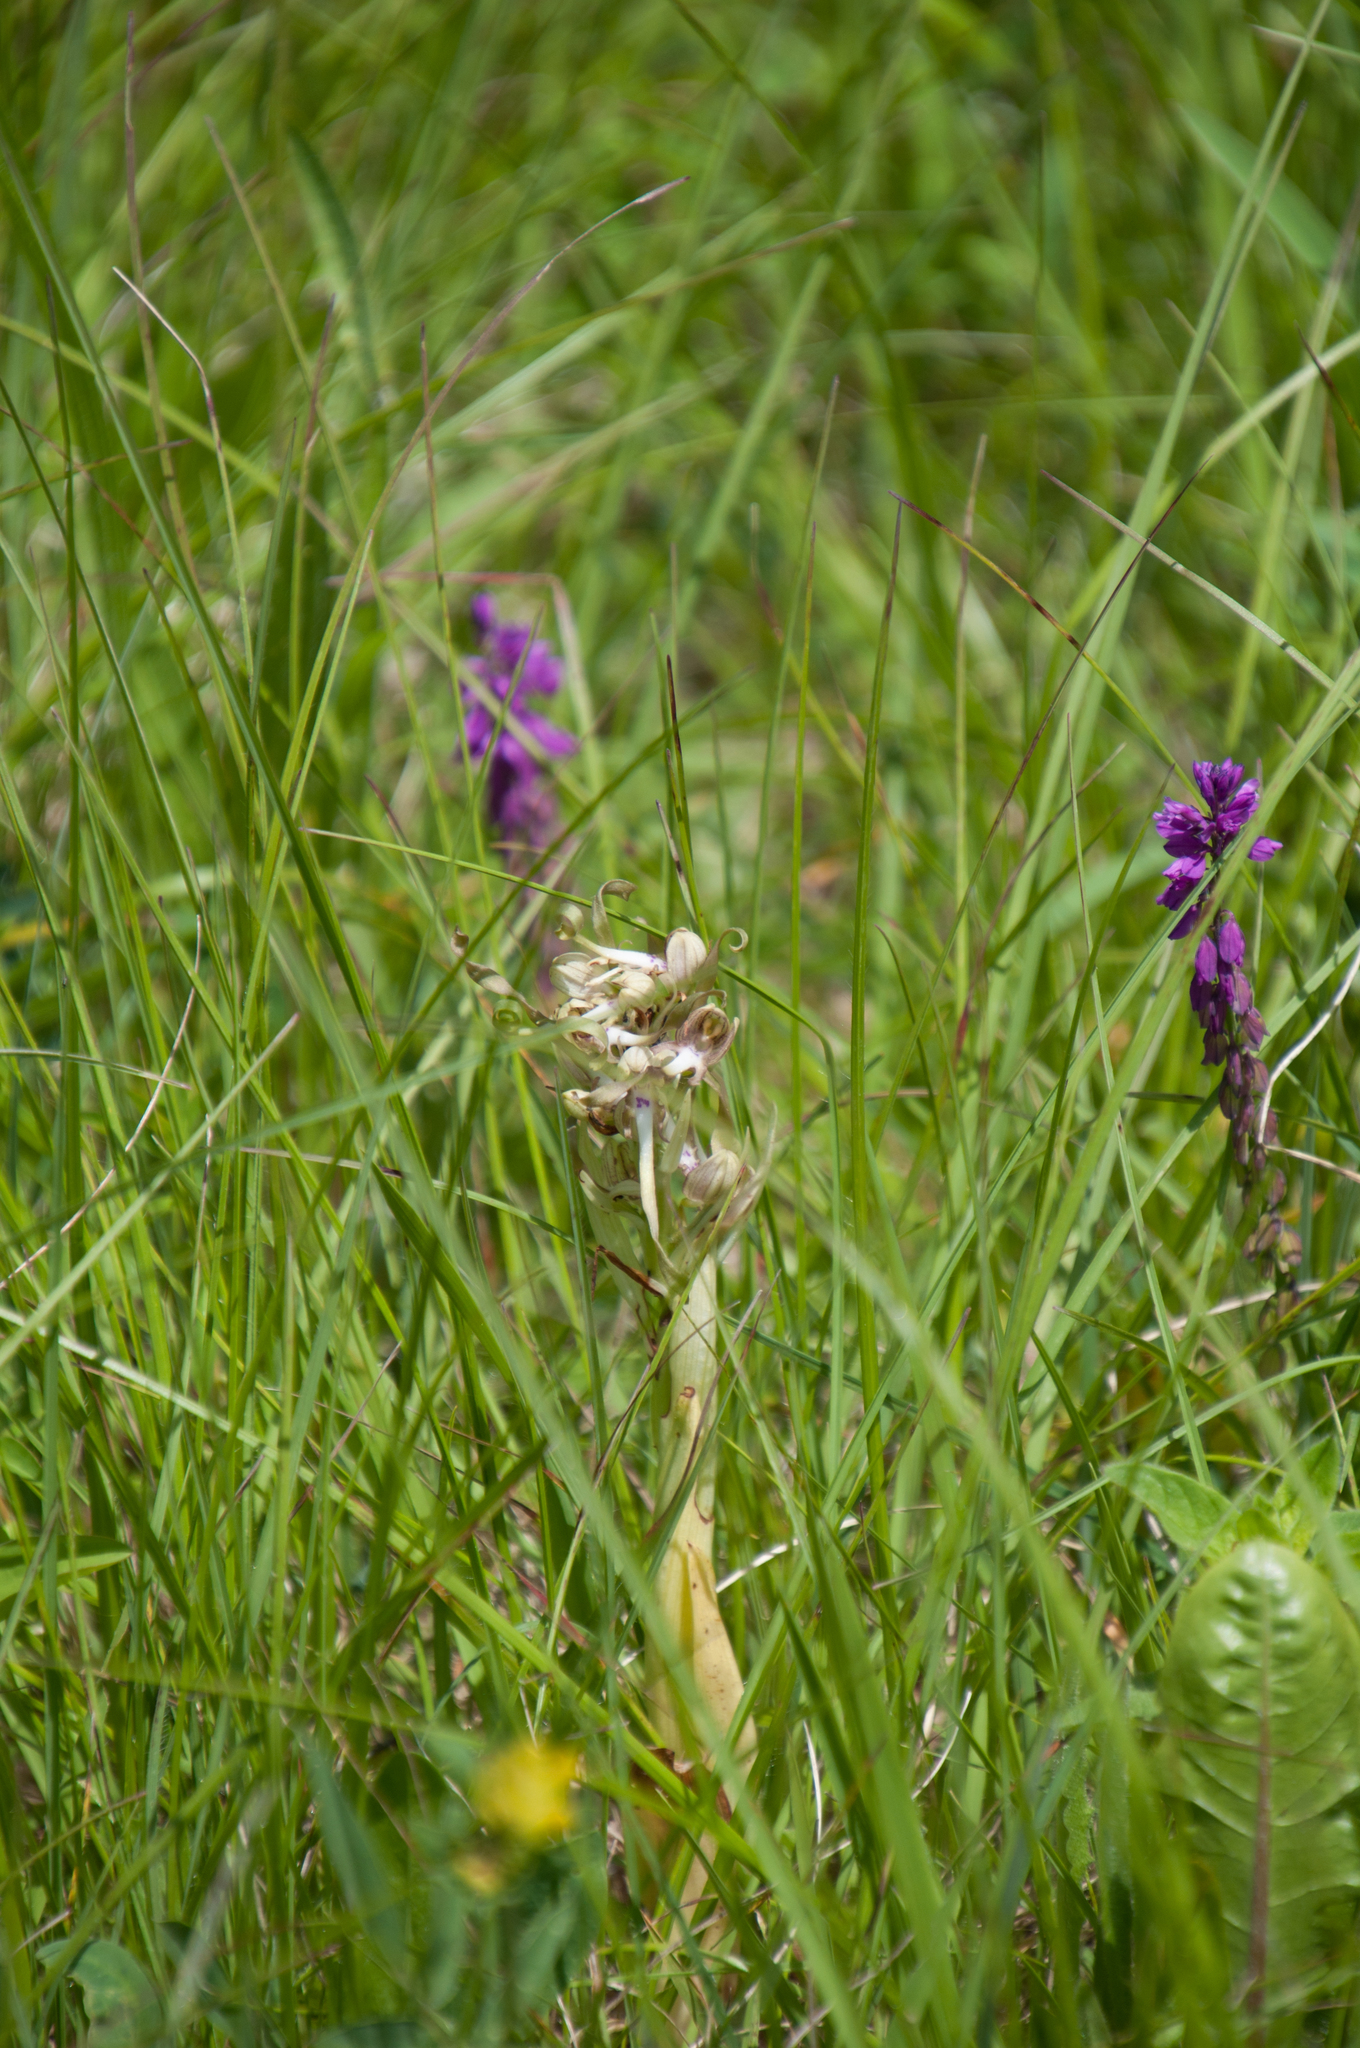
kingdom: Plantae
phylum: Tracheophyta
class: Liliopsida
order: Asparagales
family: Orchidaceae
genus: Himantoglossum
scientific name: Himantoglossum hircinum
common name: Lizard orchid
